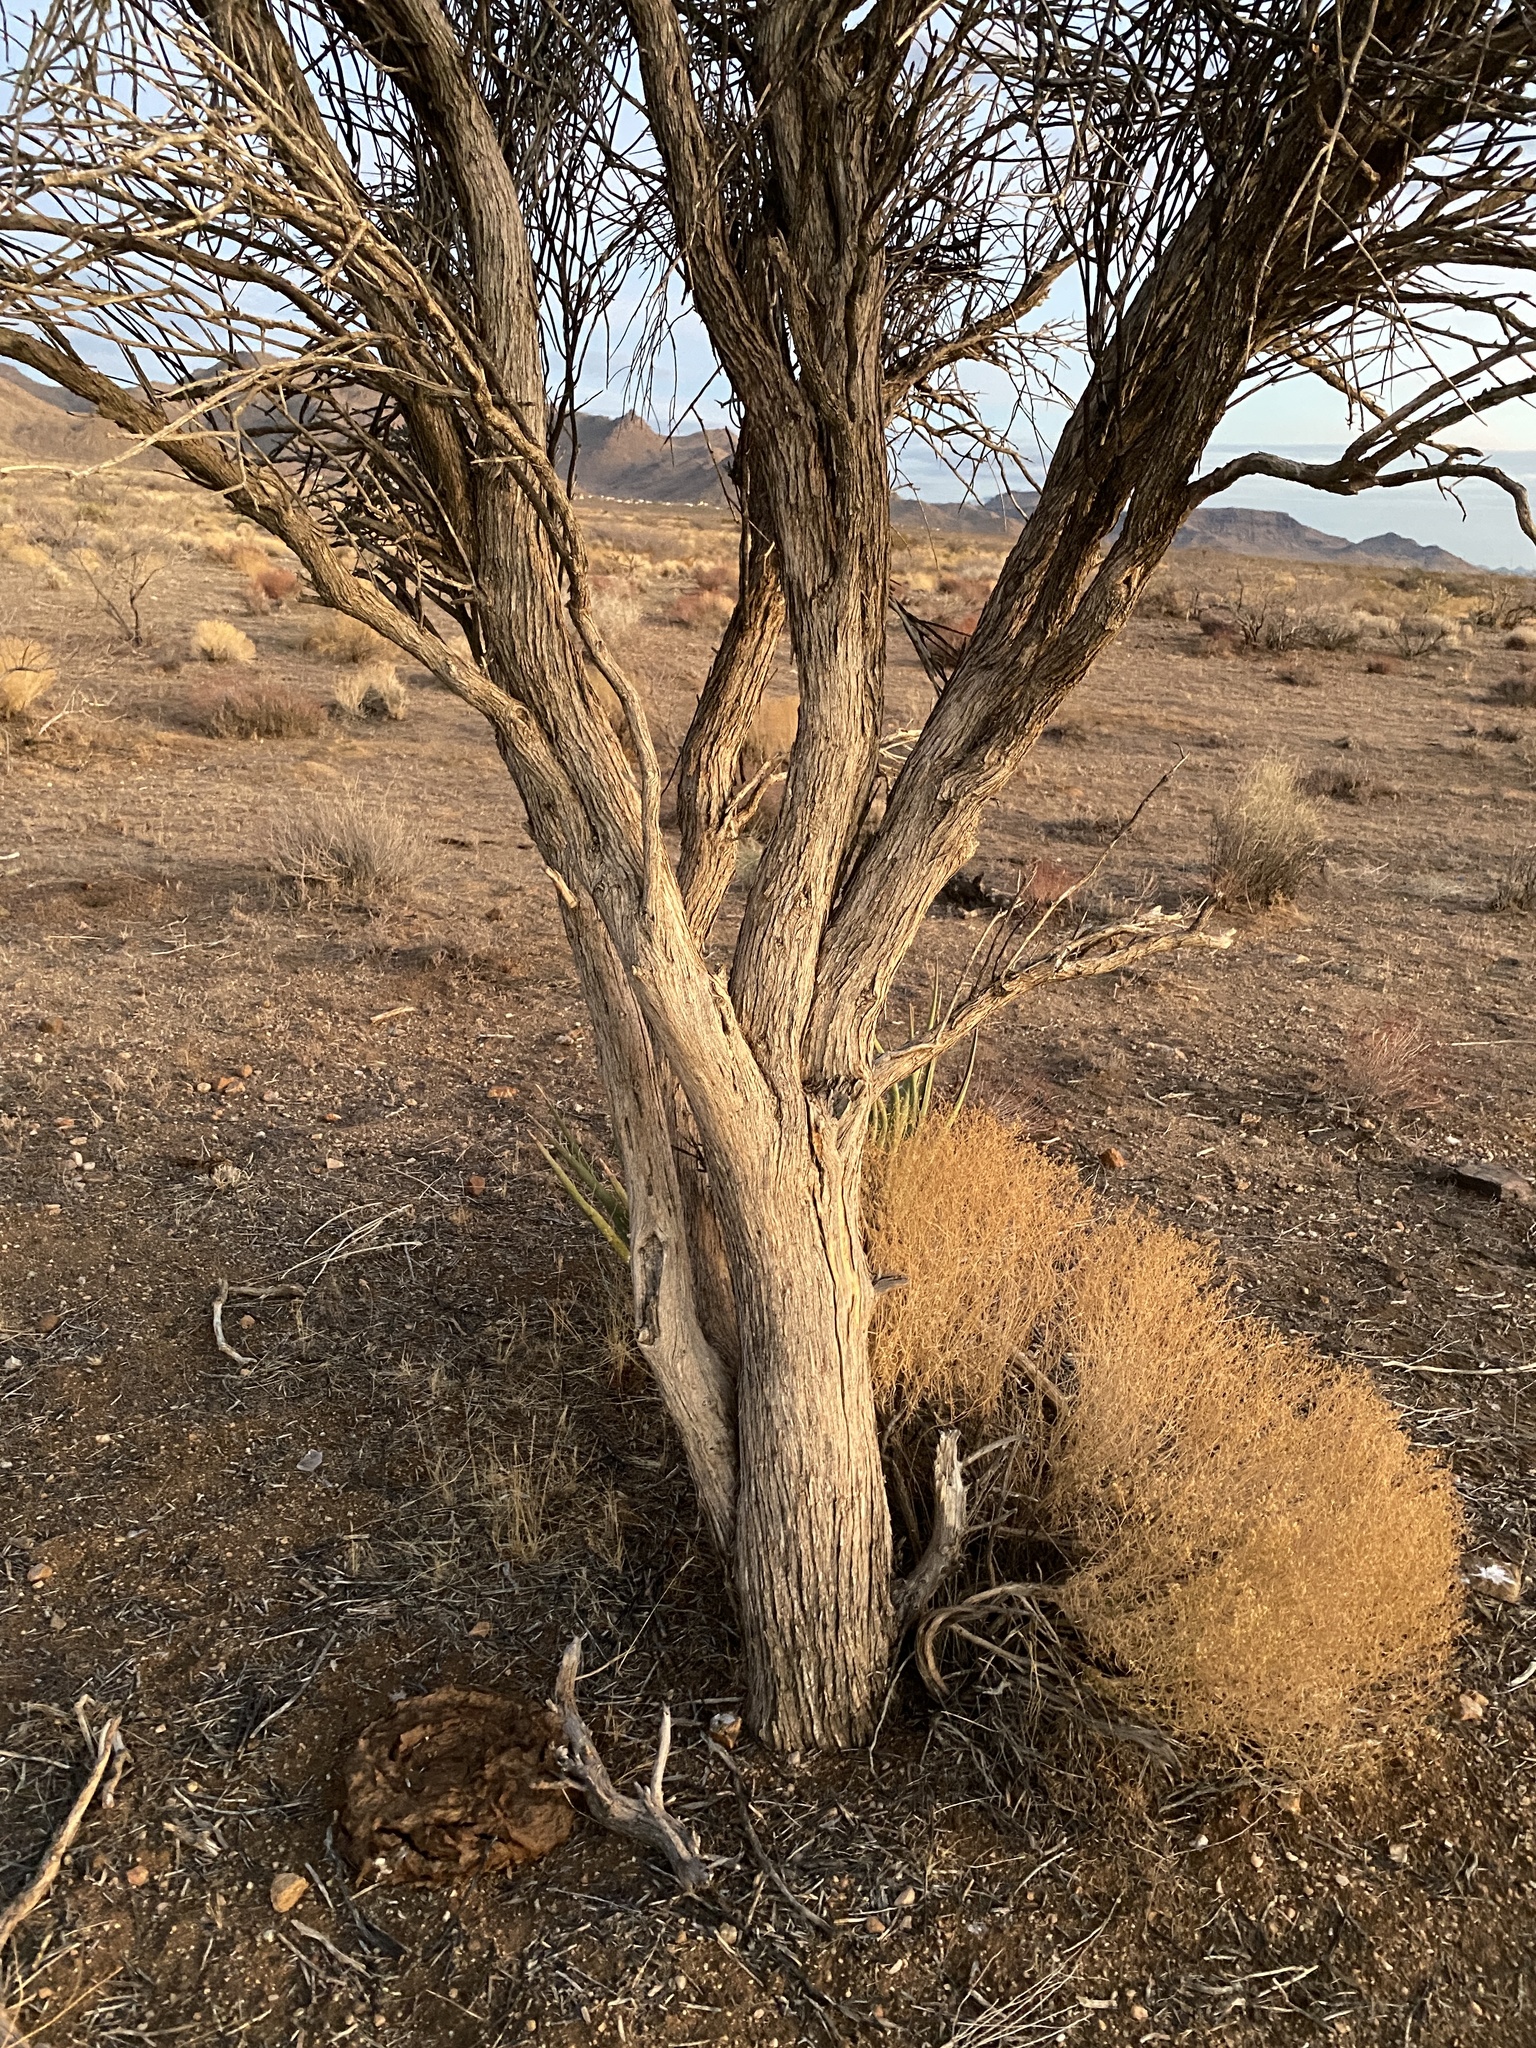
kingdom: Plantae
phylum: Tracheophyta
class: Magnoliopsida
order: Celastrales
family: Celastraceae
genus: Canotia
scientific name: Canotia holacantha
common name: Crucifixion thorns
